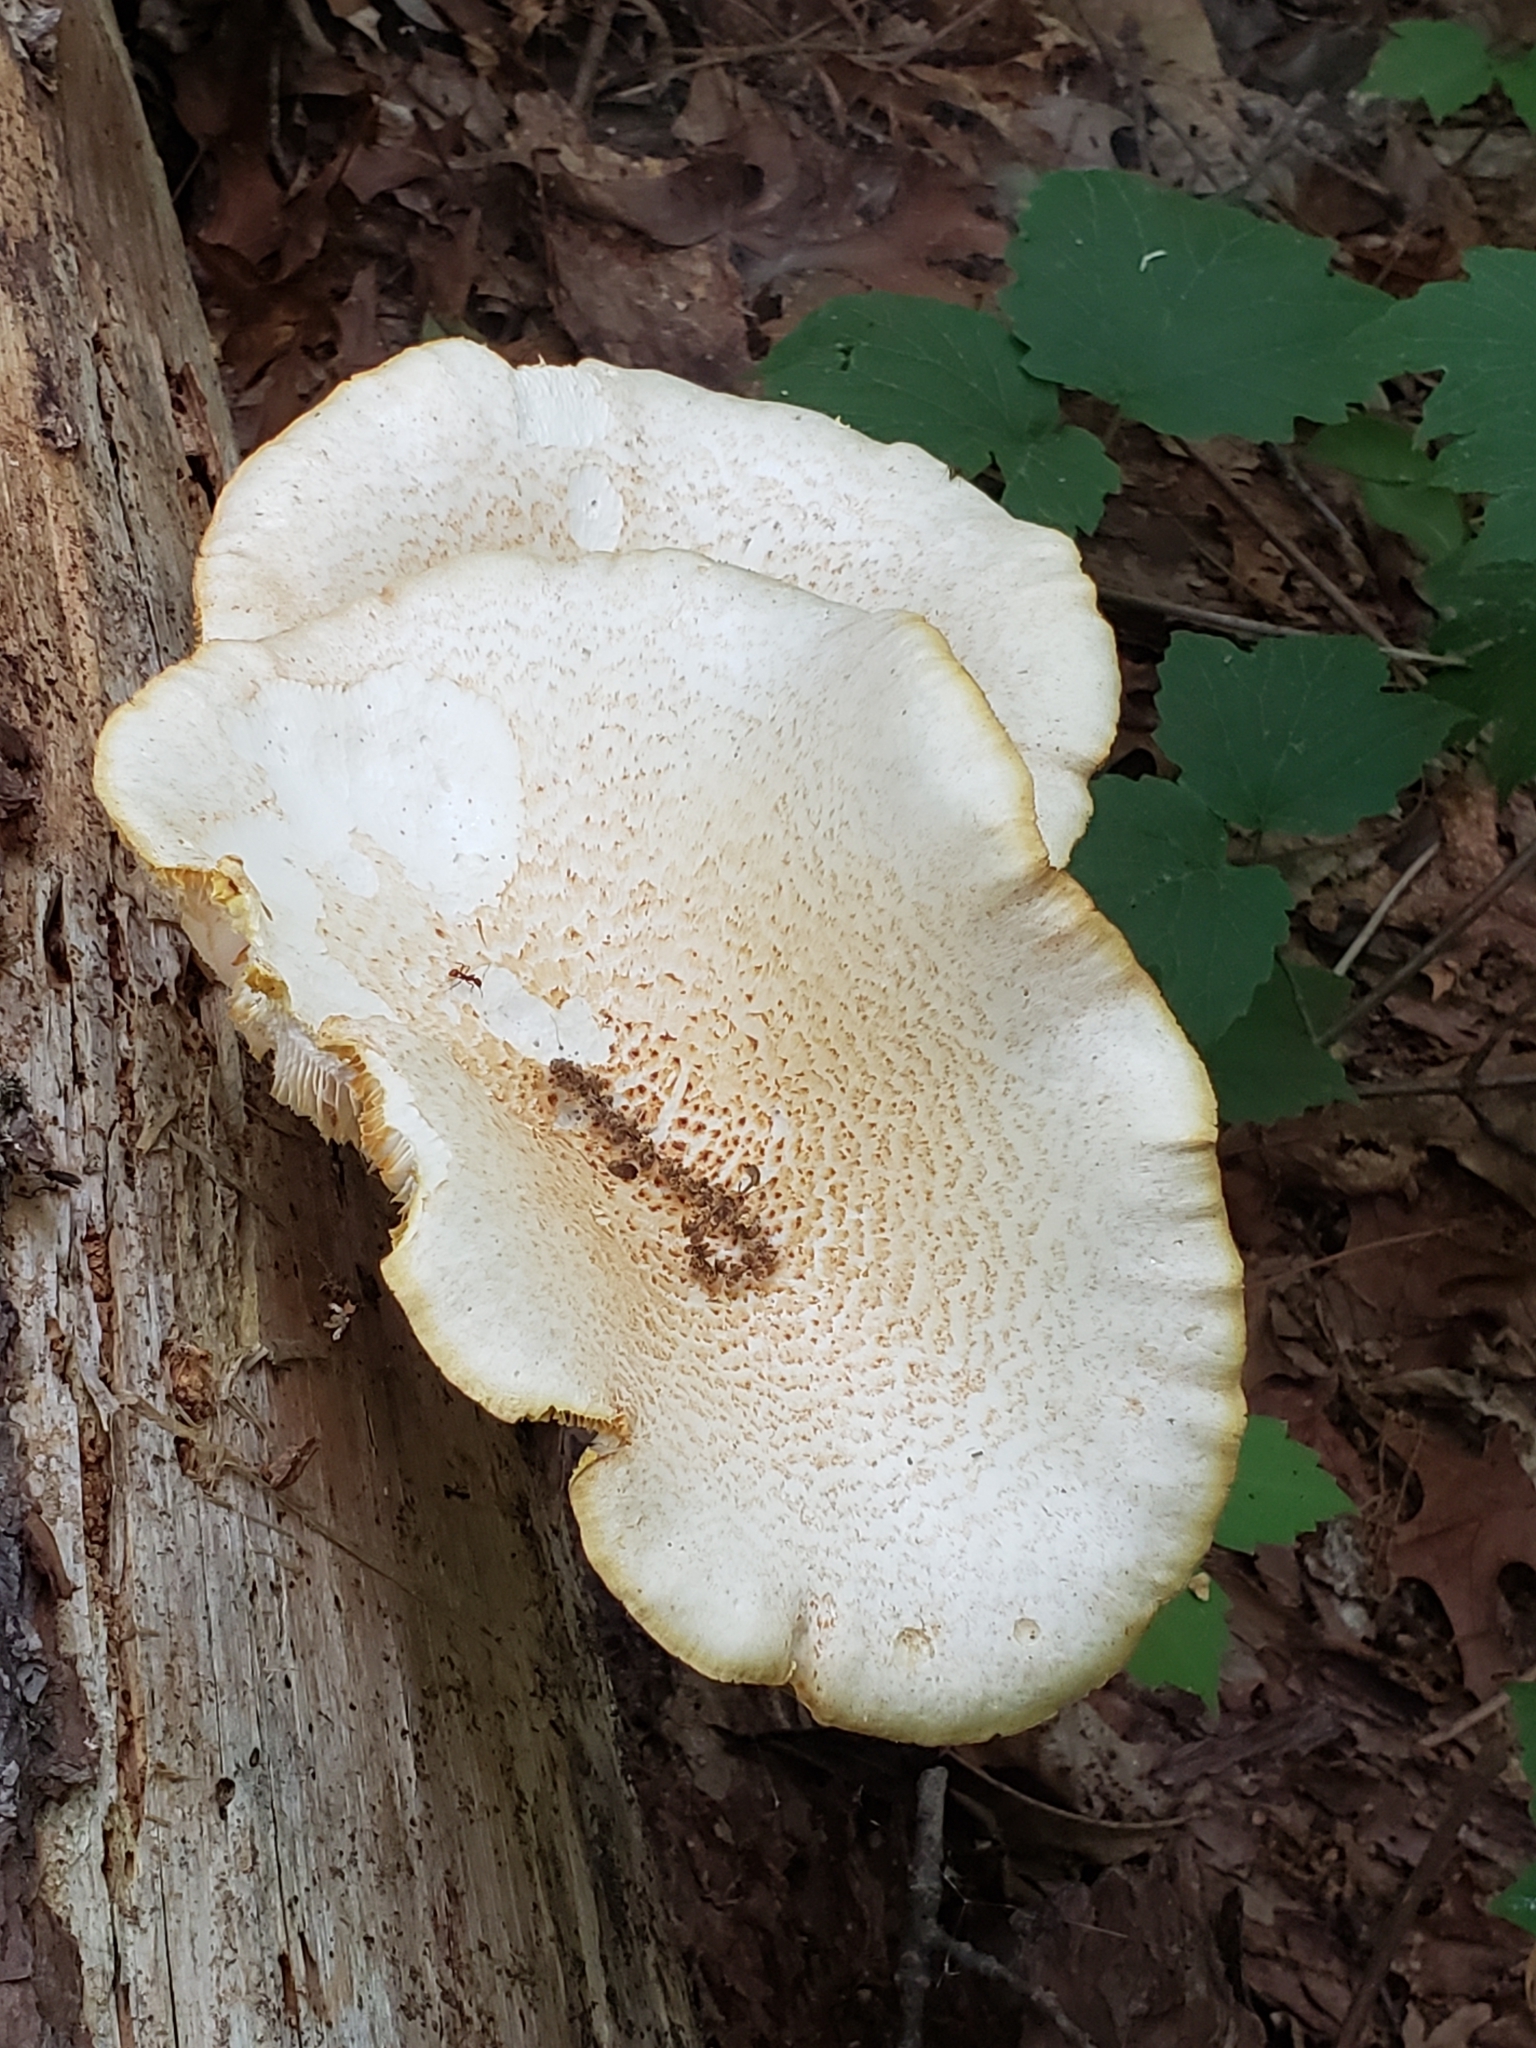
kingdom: Fungi
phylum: Basidiomycota
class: Agaricomycetes
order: Gloeophyllales
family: Gloeophyllaceae
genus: Neolentinus
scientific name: Neolentinus lepideus
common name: Scaly sawgill
